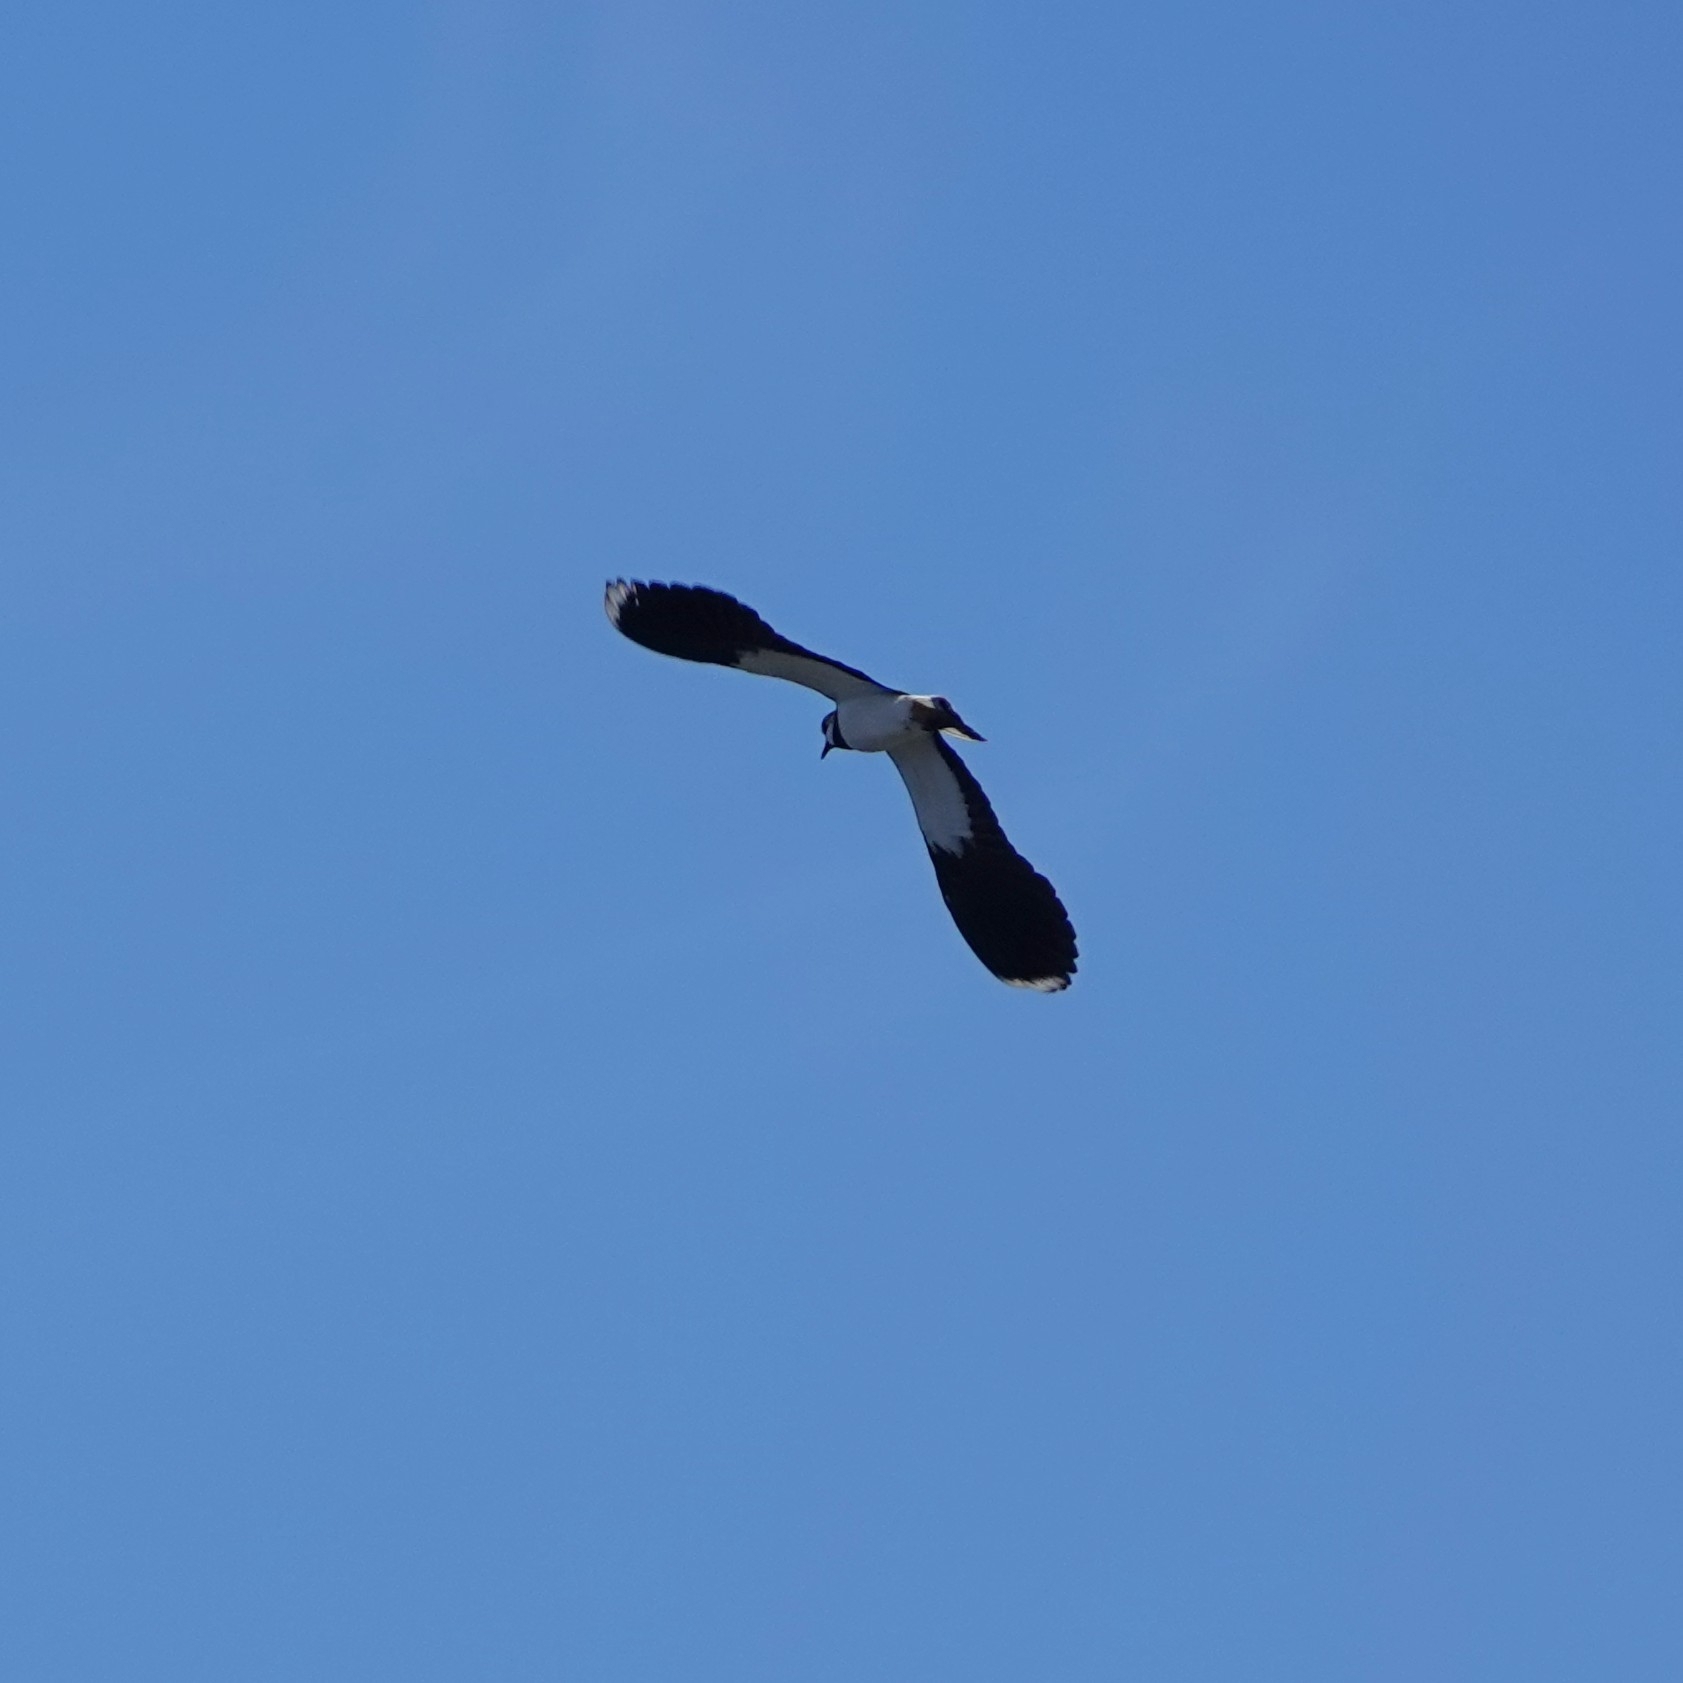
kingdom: Animalia
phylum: Chordata
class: Aves
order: Charadriiformes
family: Charadriidae
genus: Vanellus
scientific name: Vanellus vanellus
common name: Northern lapwing
